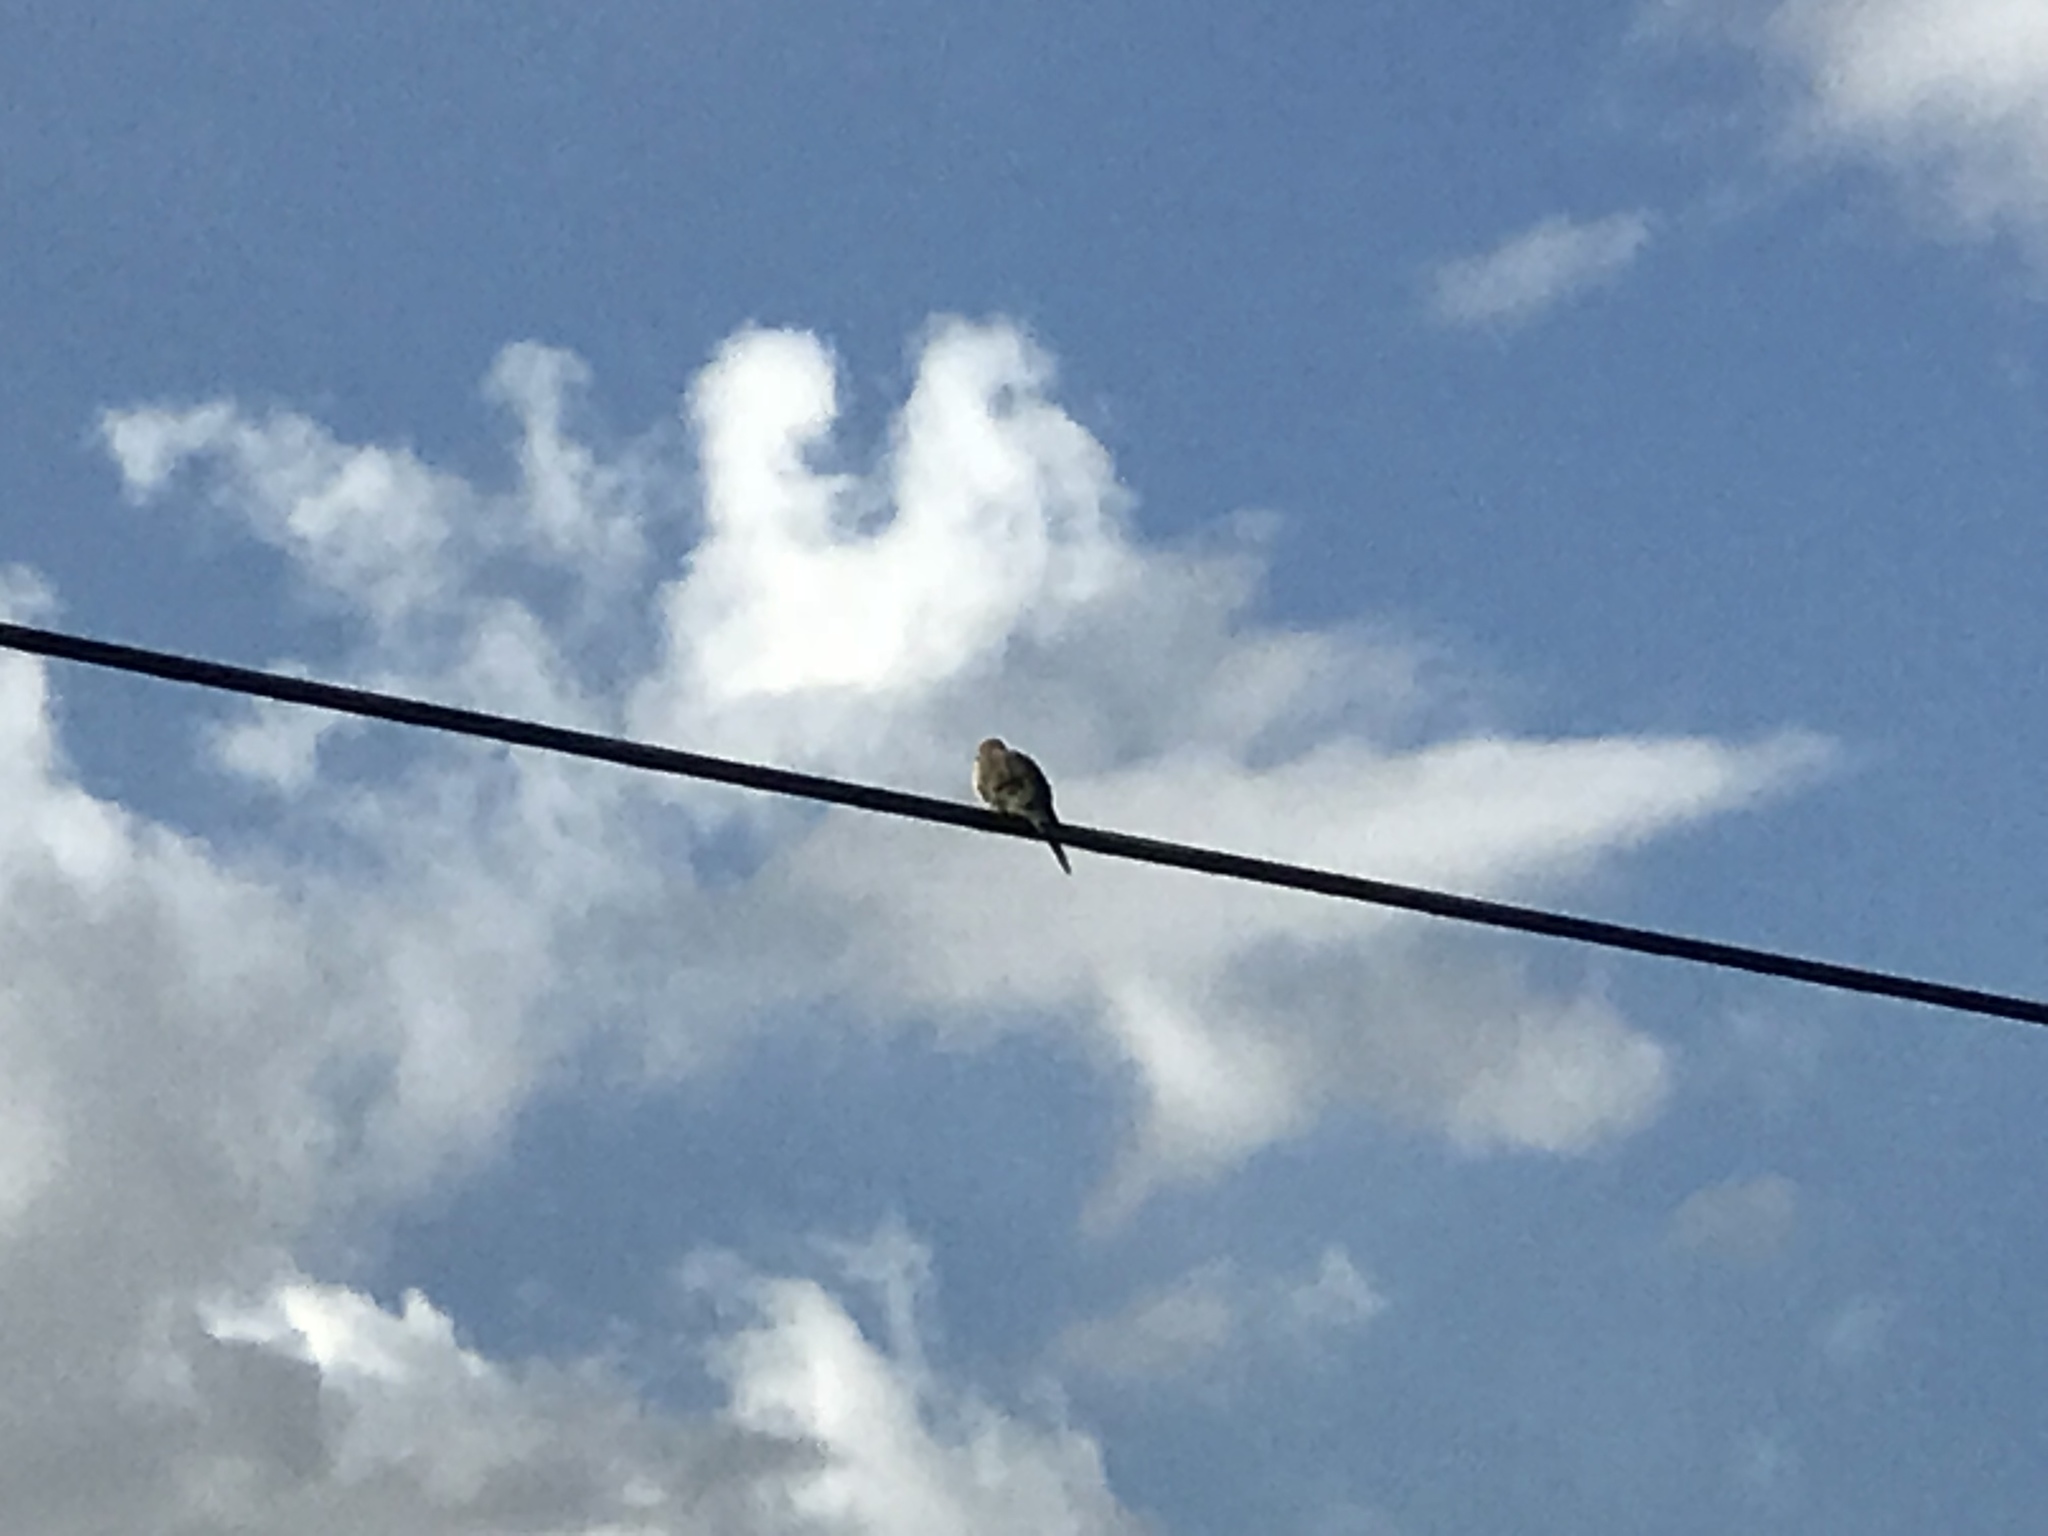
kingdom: Animalia
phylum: Chordata
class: Aves
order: Columbiformes
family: Columbidae
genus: Zenaida
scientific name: Zenaida macroura
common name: Mourning dove
